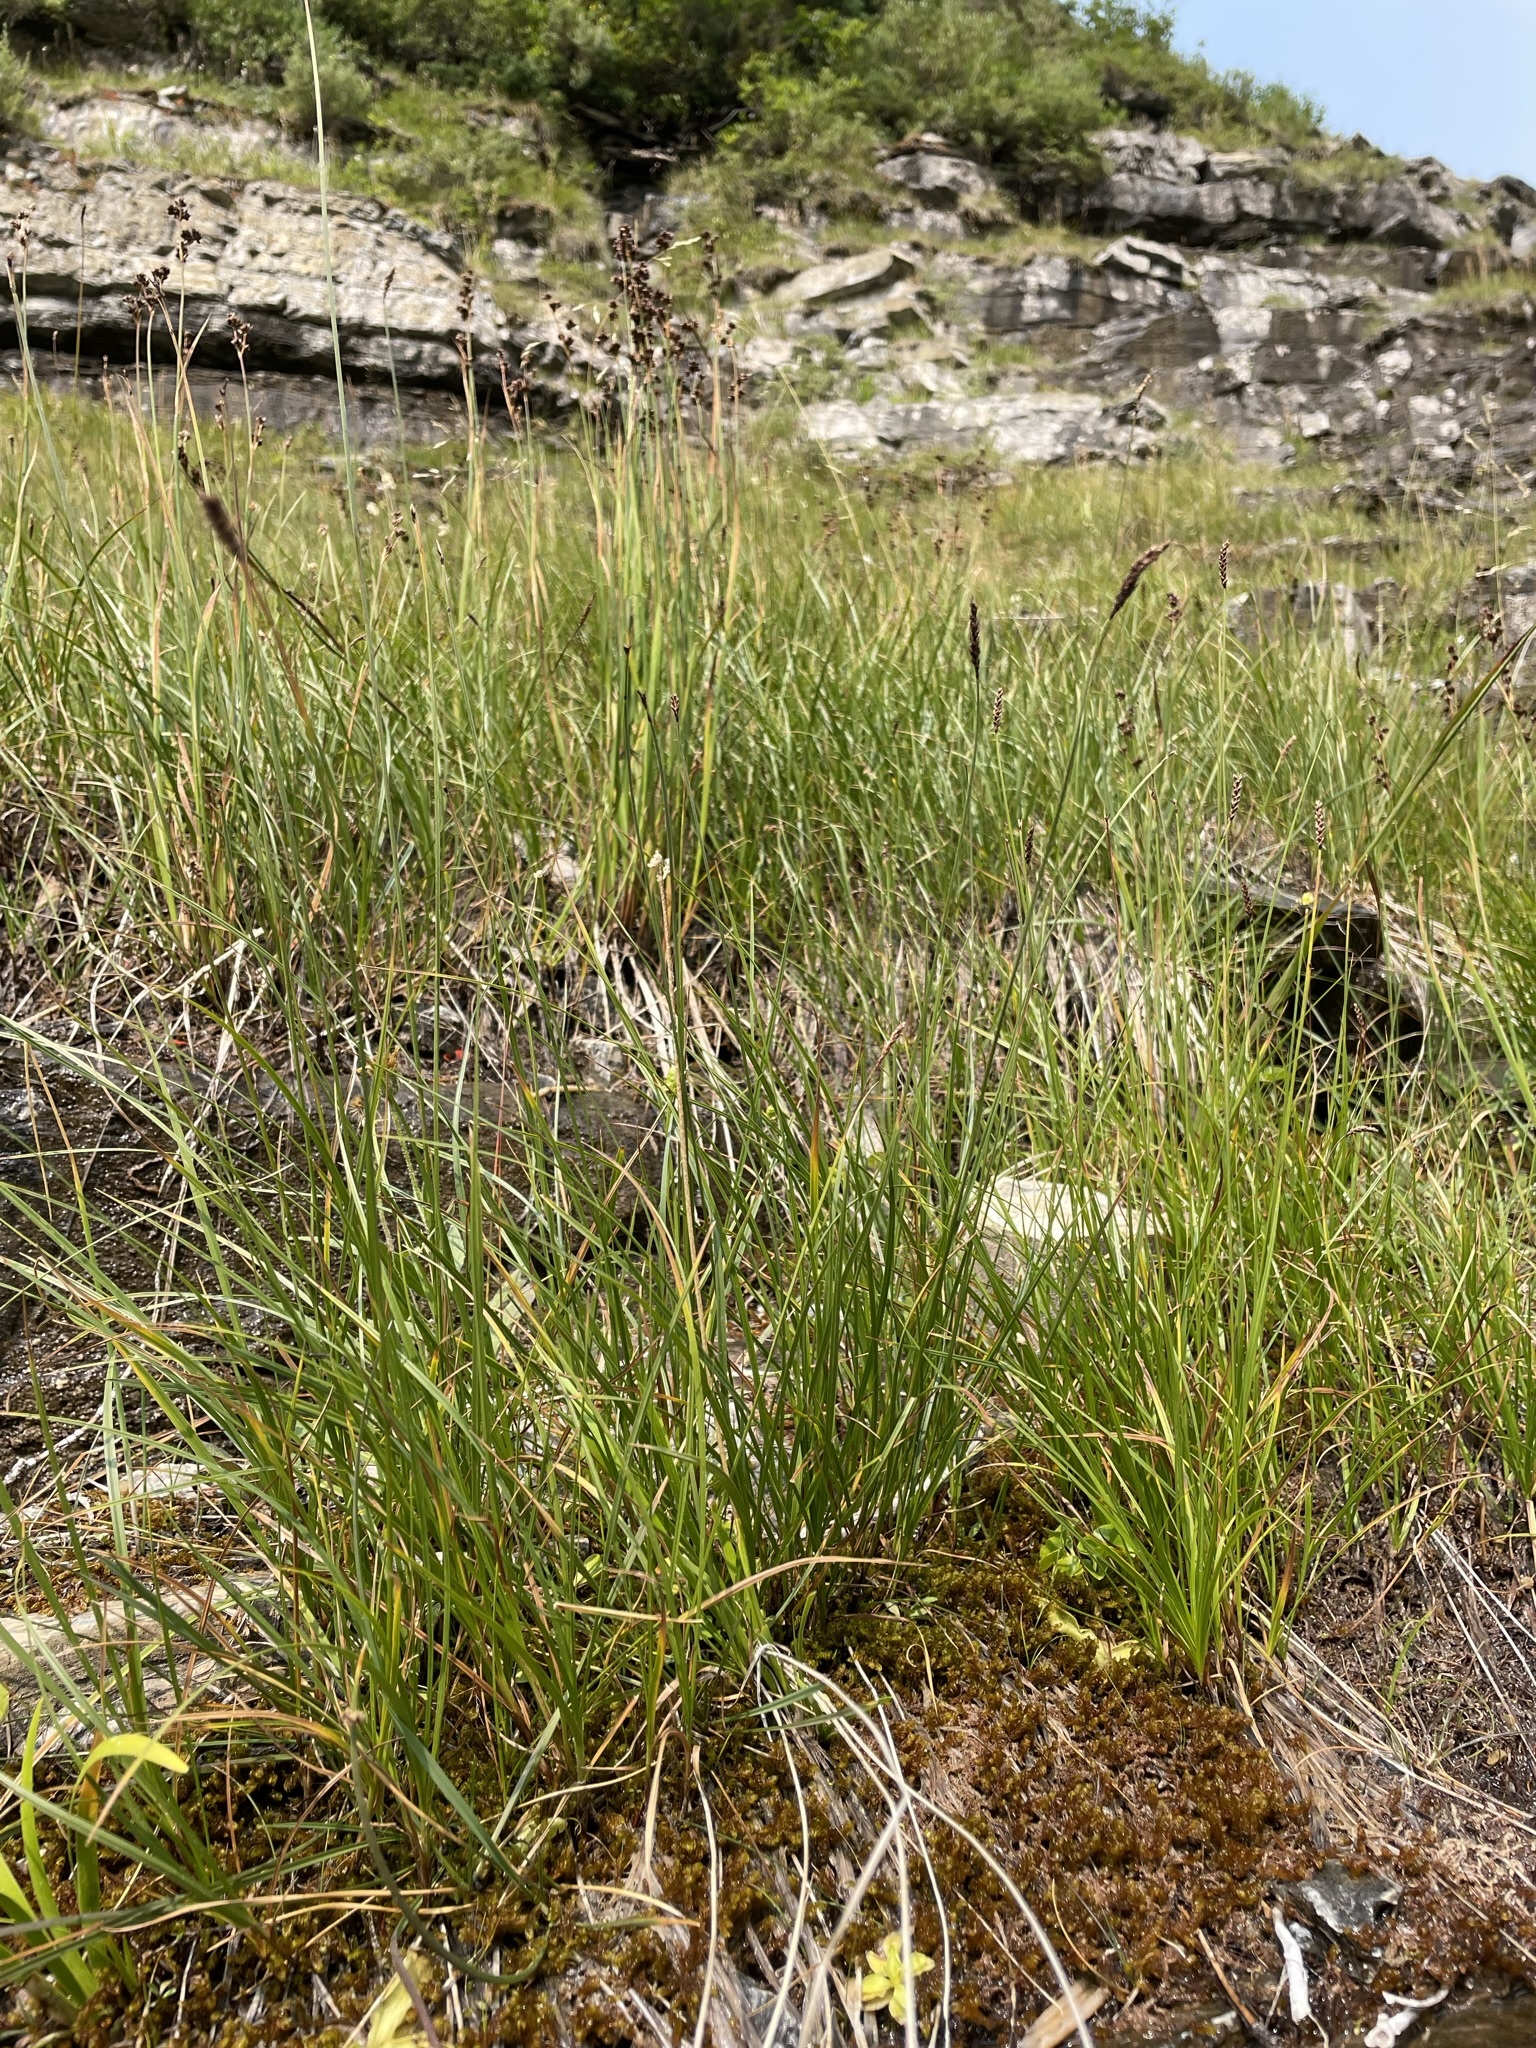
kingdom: Plantae
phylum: Tracheophyta
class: Liliopsida
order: Poales
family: Cyperaceae
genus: Carex
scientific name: Carex scirpoidea
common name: Canada single-spike sedge
